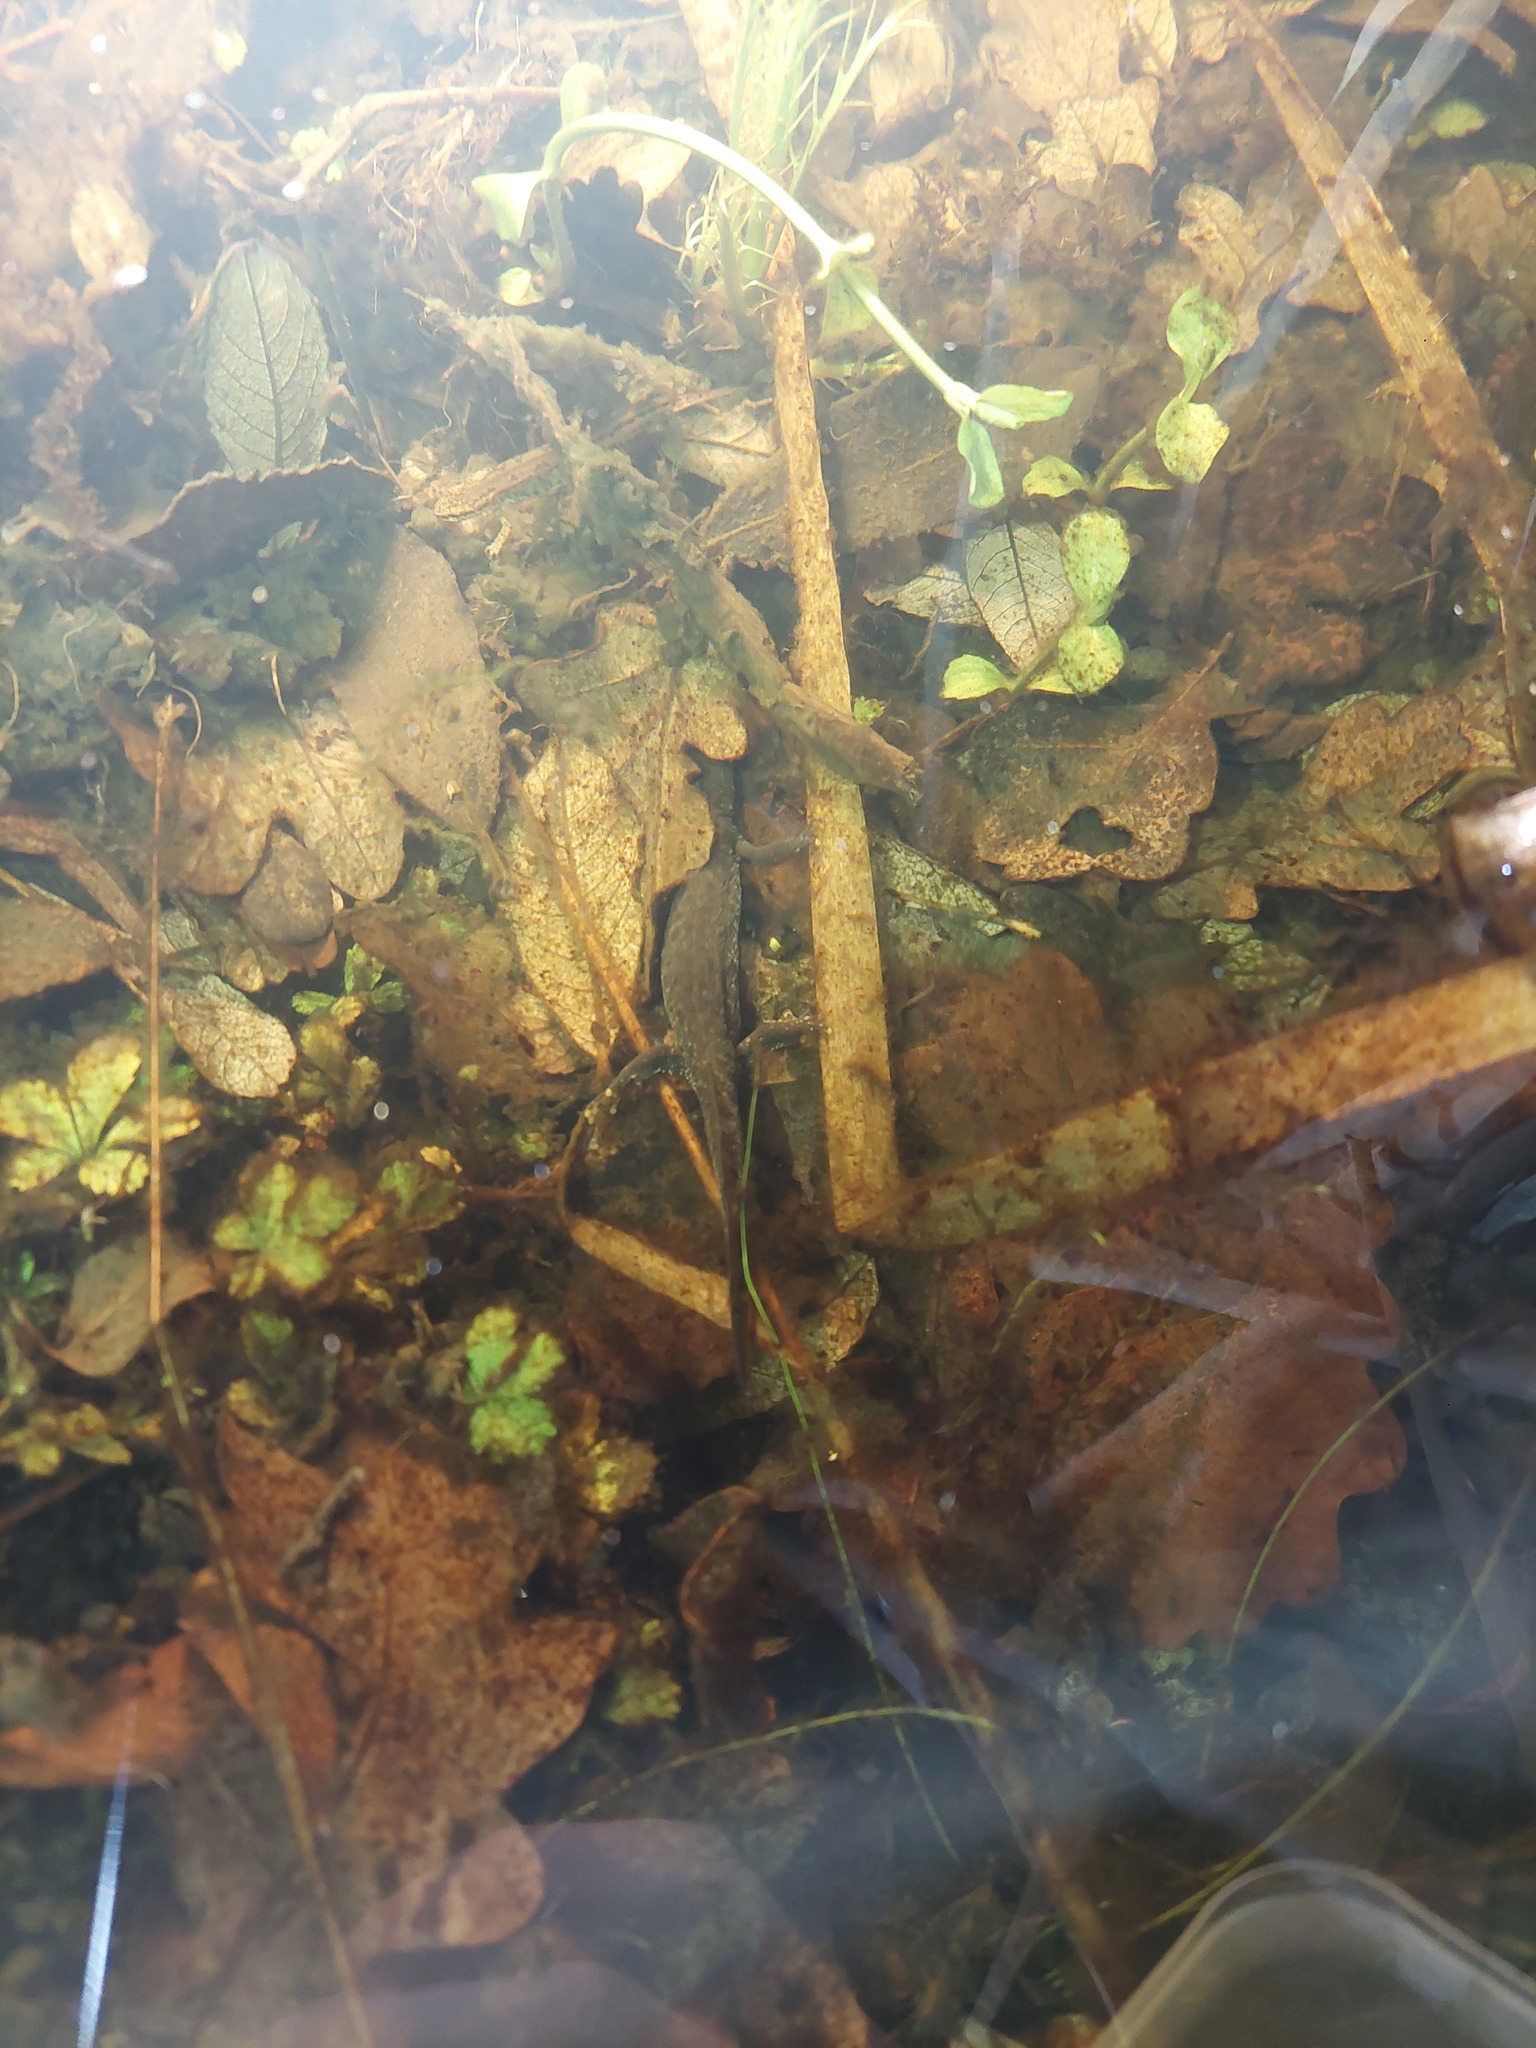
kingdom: Animalia
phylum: Chordata
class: Amphibia
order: Caudata
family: Salamandridae
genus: Triturus
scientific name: Triturus cristatus
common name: Crested newt
